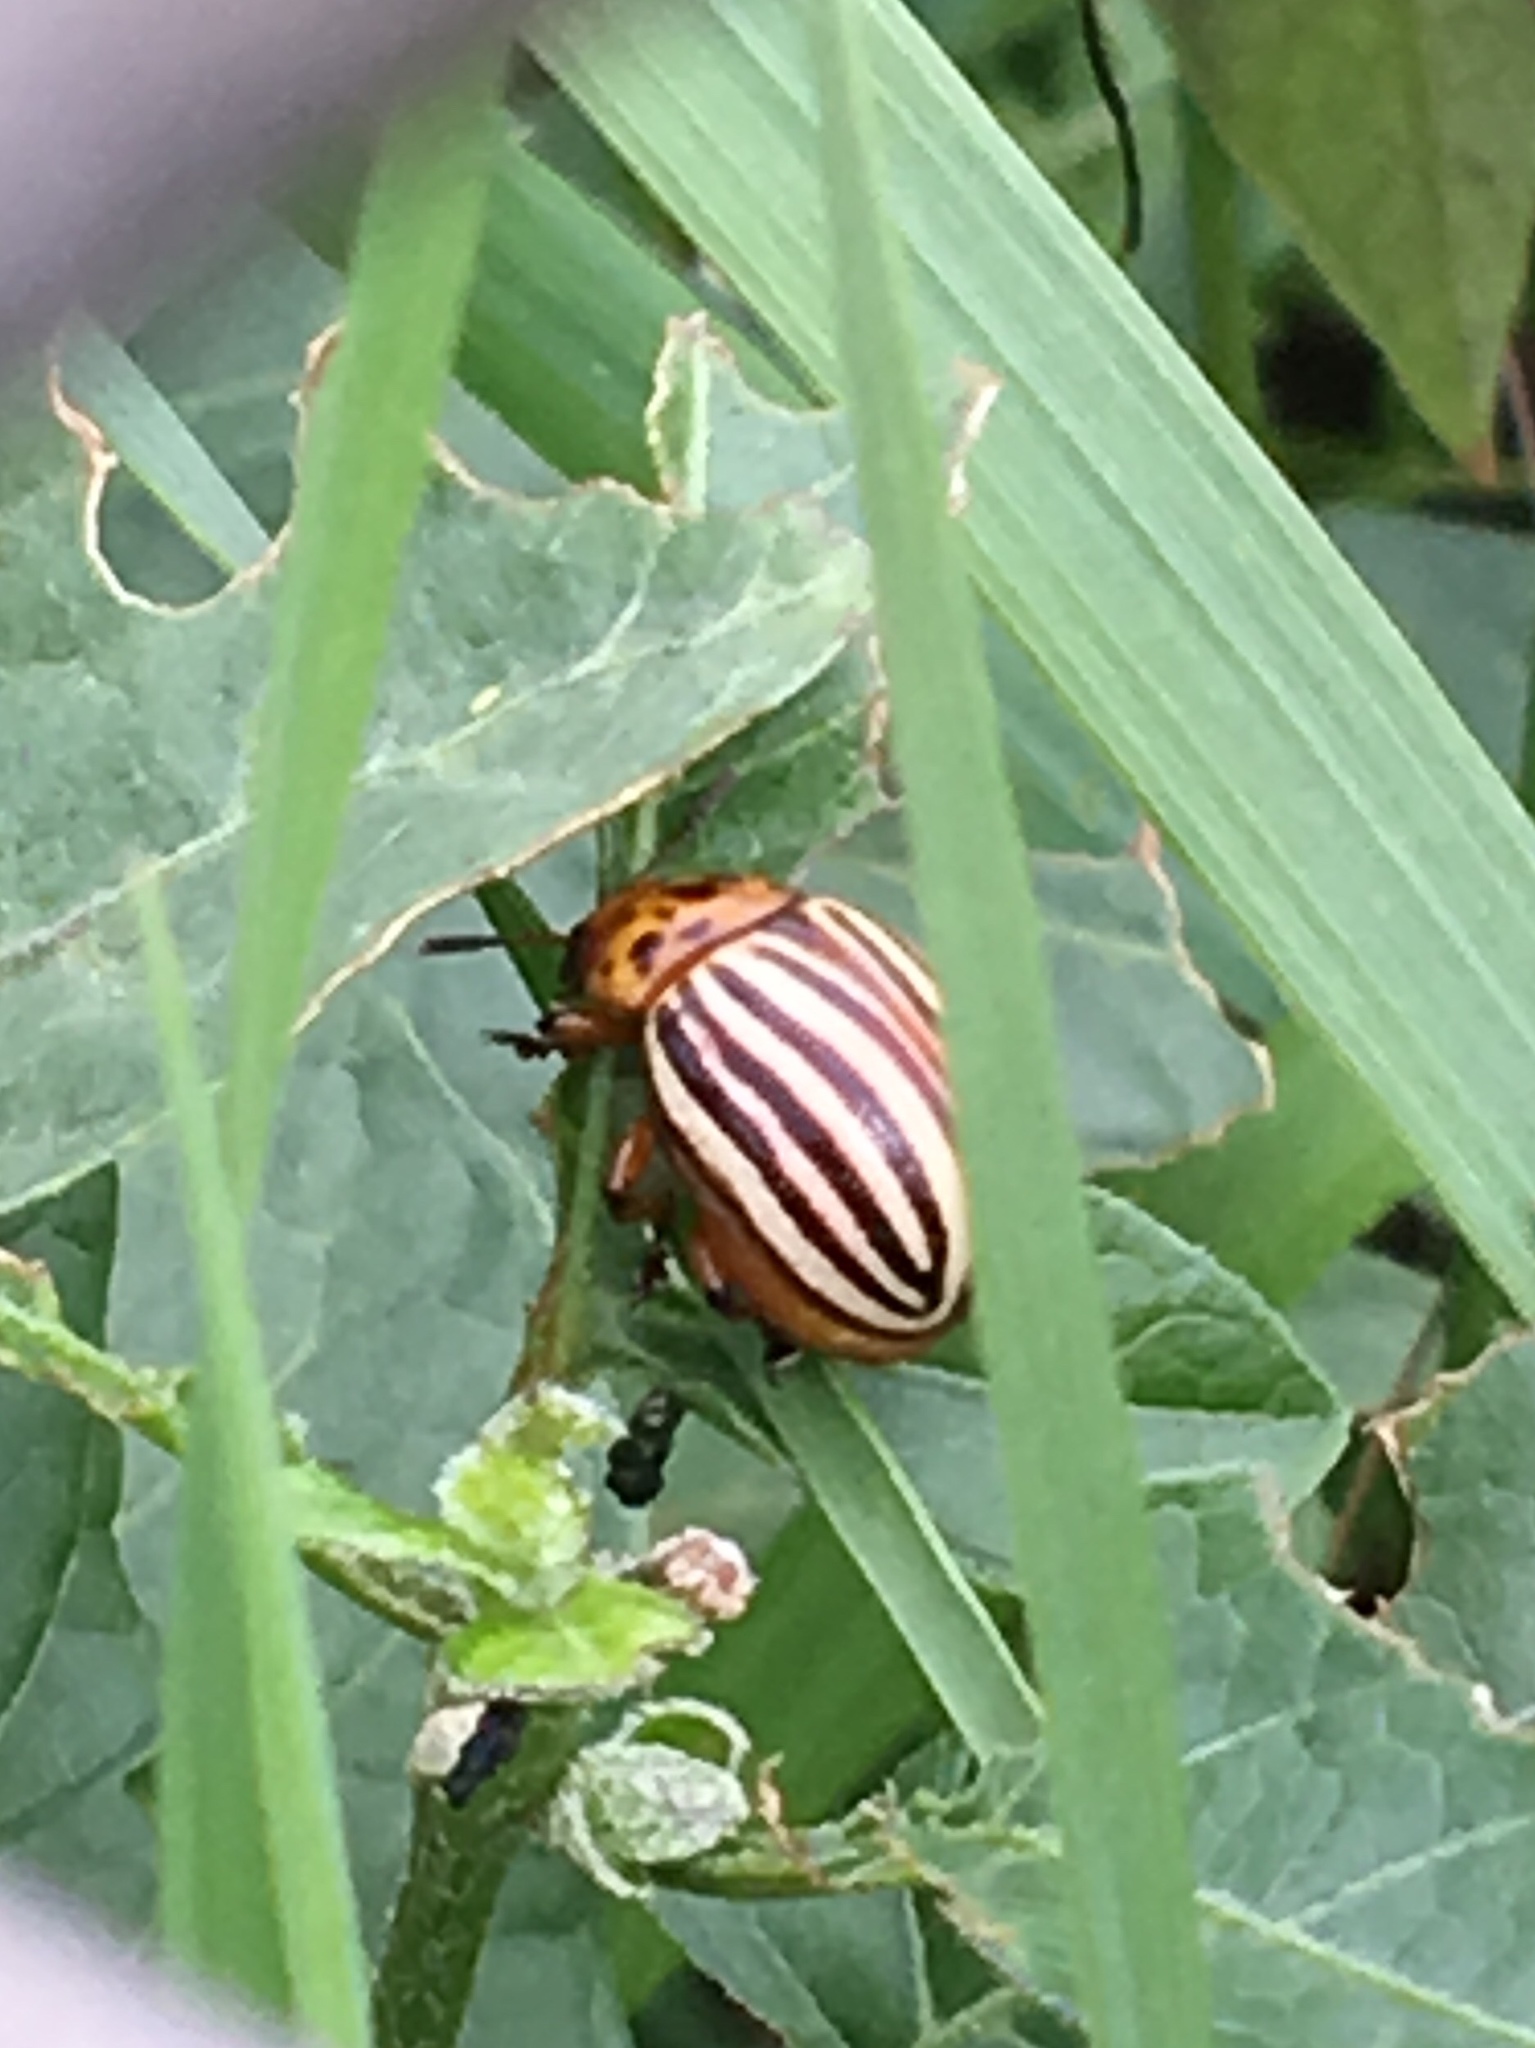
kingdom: Animalia
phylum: Arthropoda
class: Insecta
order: Coleoptera
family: Chrysomelidae
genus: Leptinotarsa
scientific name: Leptinotarsa decemlineata
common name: Colorado potato beetle
